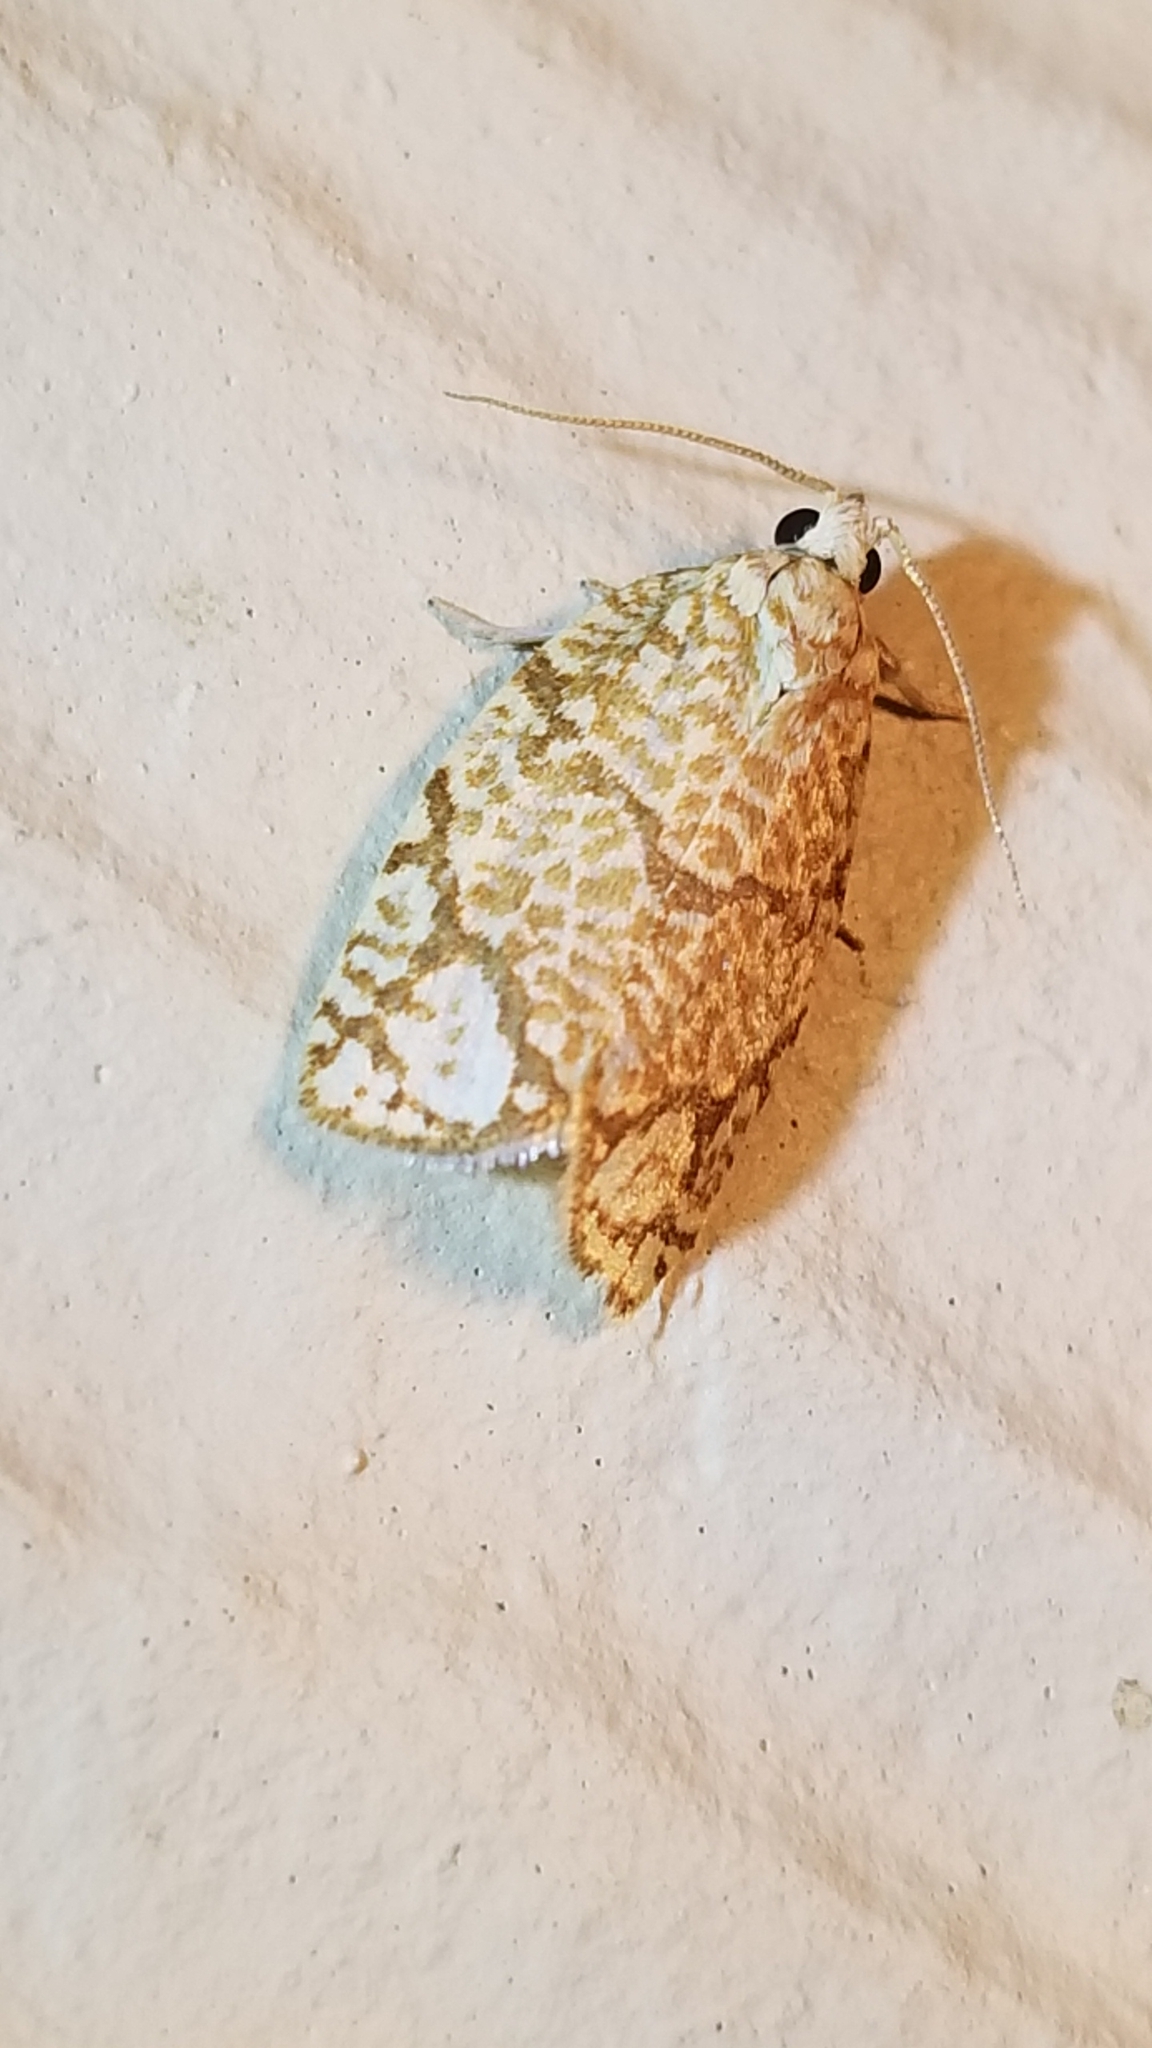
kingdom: Animalia
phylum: Arthropoda
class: Insecta
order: Lepidoptera
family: Tortricidae
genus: Argyrotaenia
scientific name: Argyrotaenia quercifoliana
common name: Yellow-winged oak leafroller moth
